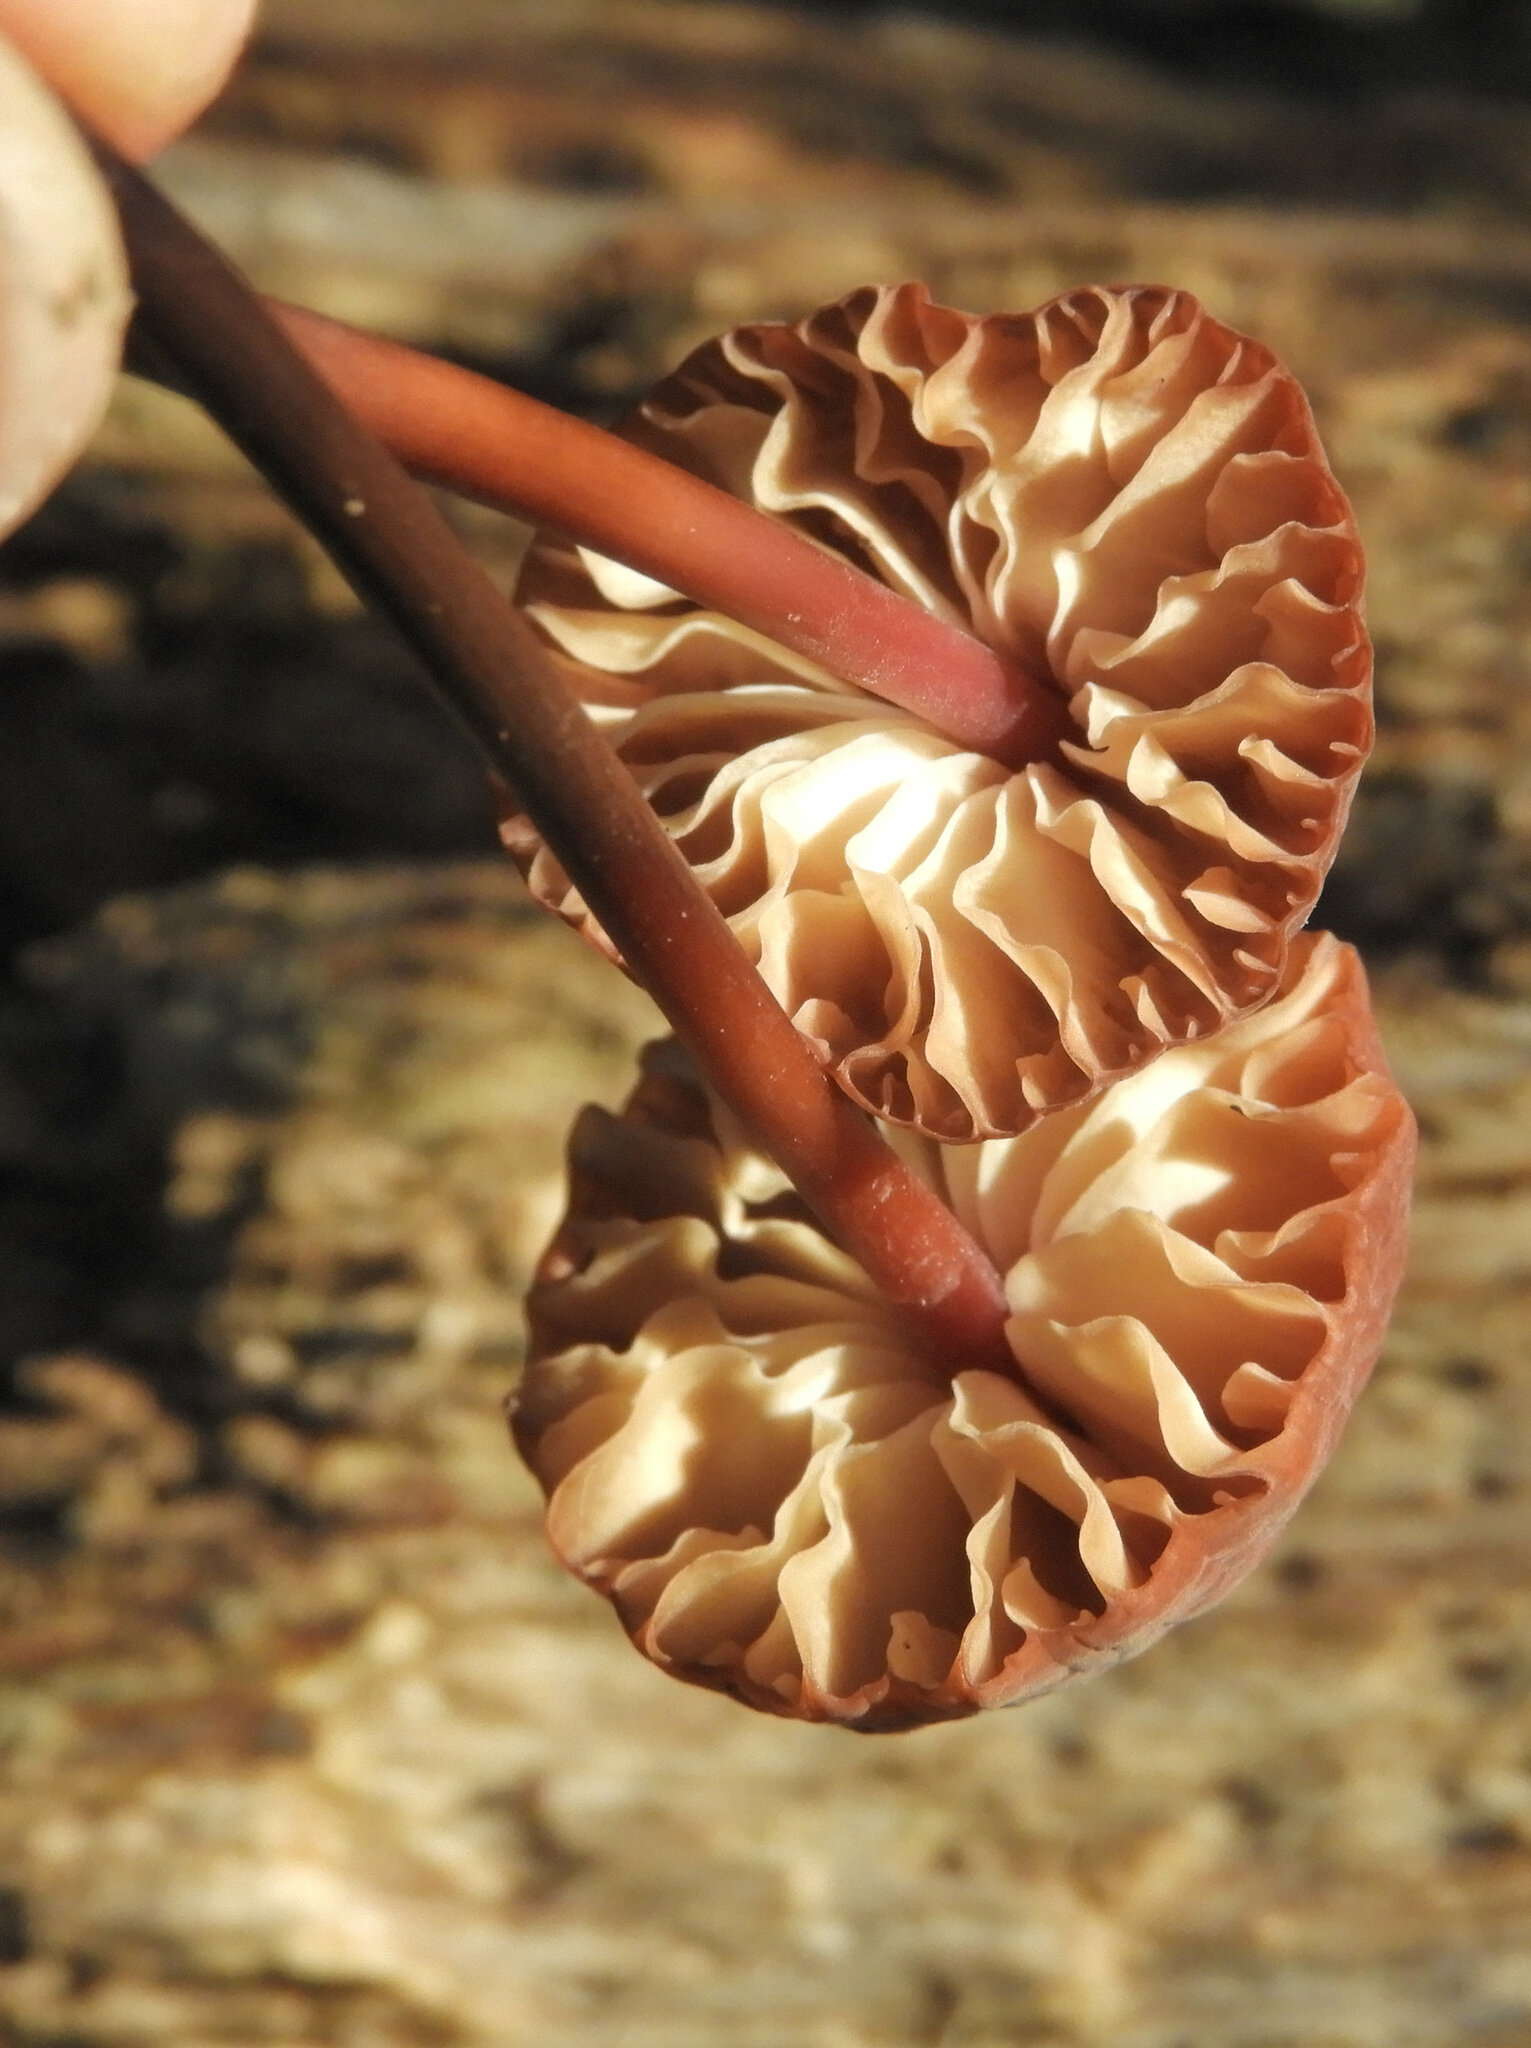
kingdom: Fungi
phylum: Basidiomycota
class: Agaricomycetes
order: Agaricales
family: Marasmiaceae
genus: Marasmius
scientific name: Marasmius plicatulus
